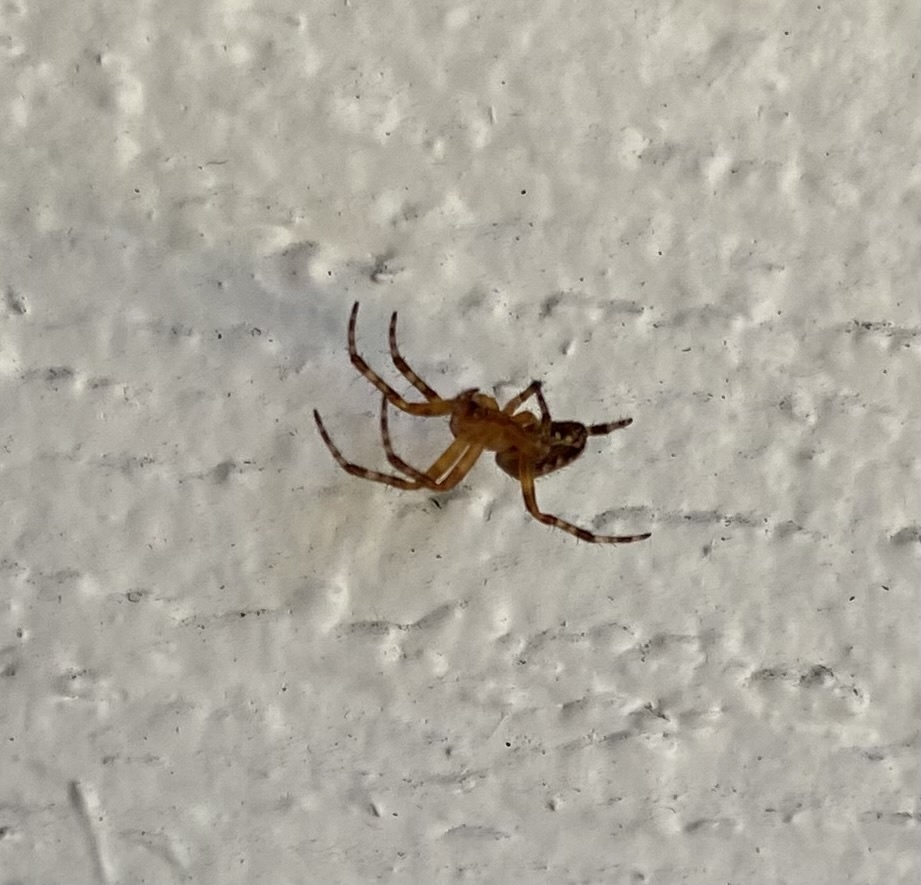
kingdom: Animalia
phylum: Arthropoda
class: Arachnida
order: Araneae
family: Araneidae
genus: Araneus
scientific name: Araneus
